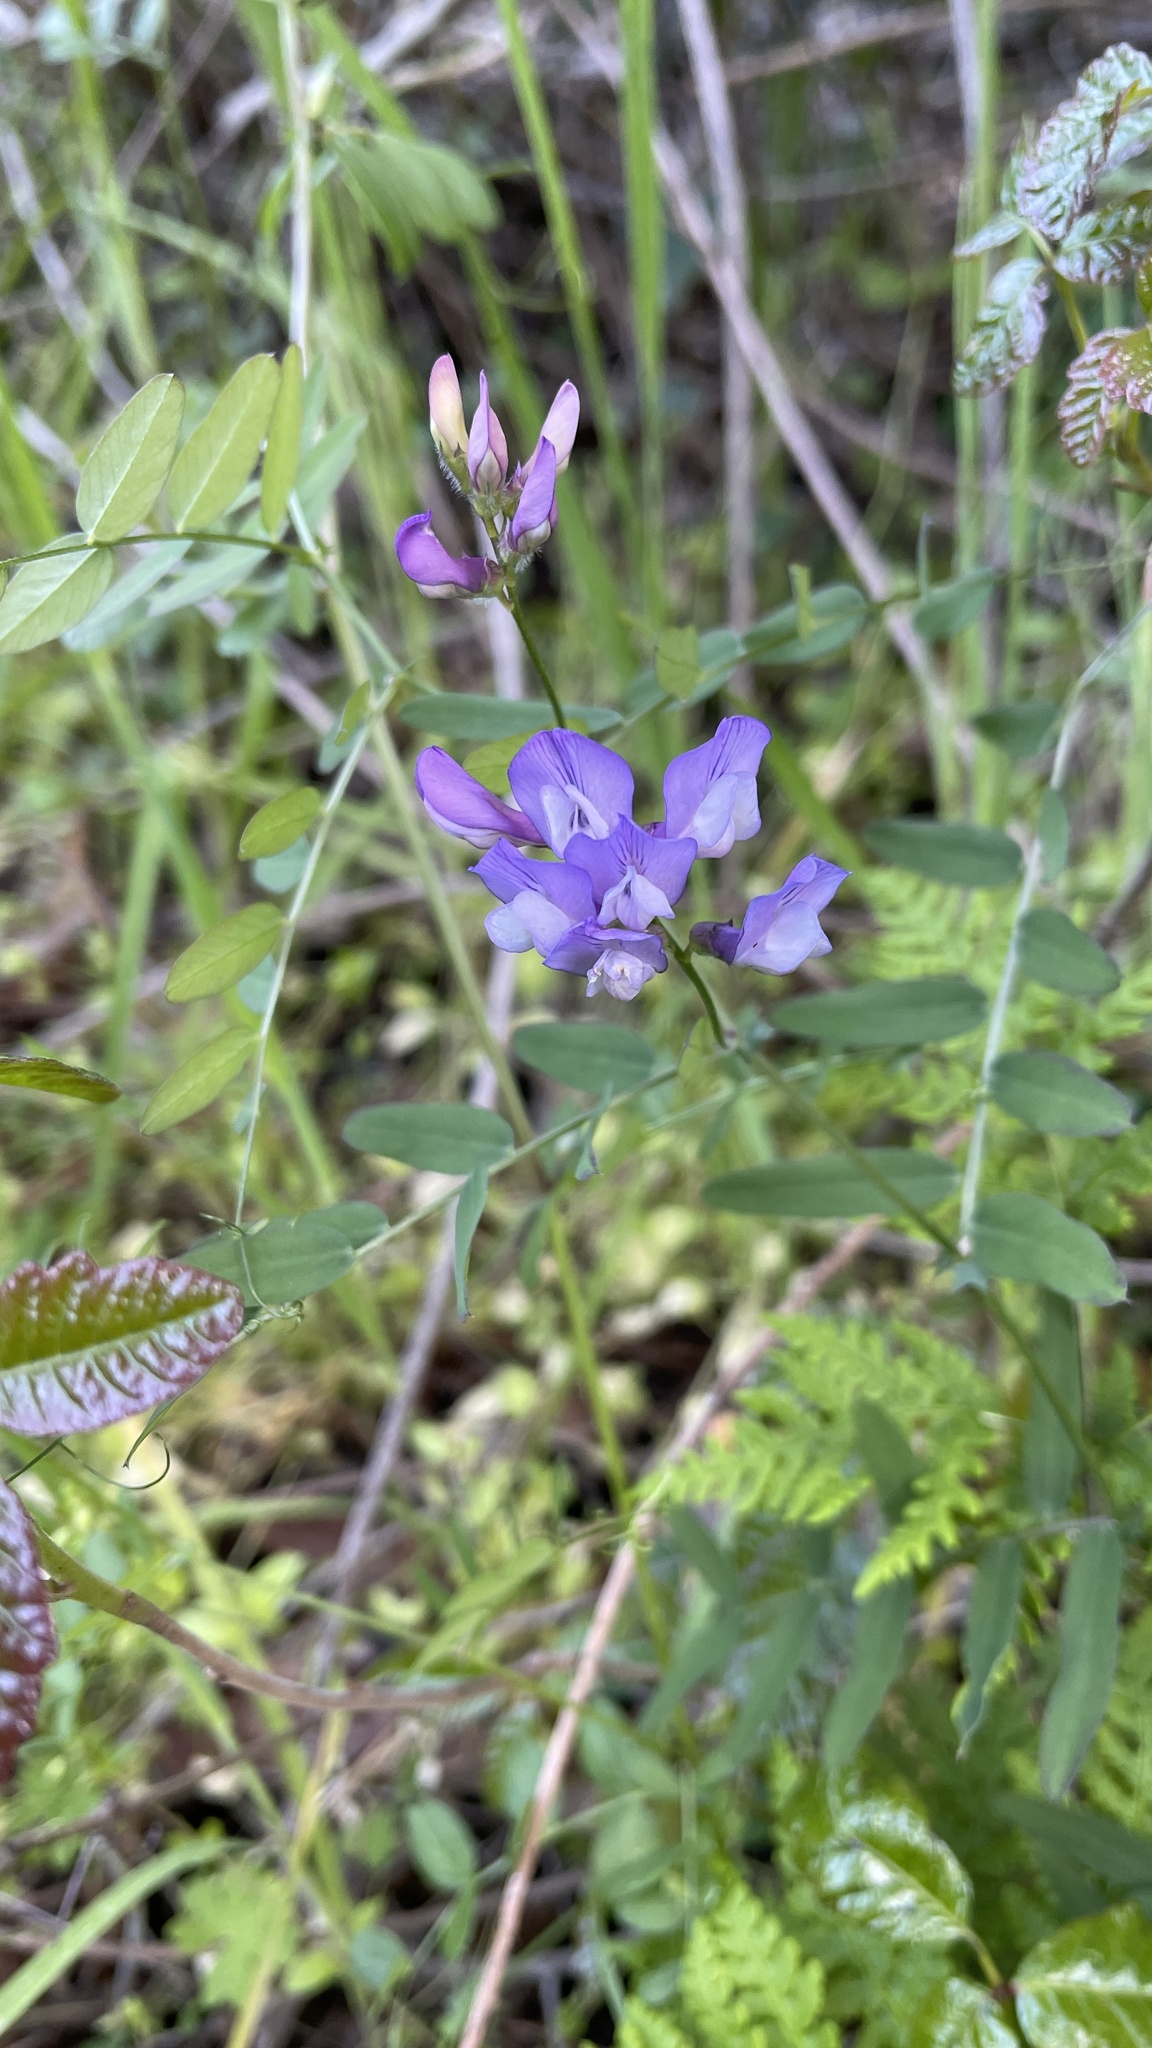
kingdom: Plantae
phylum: Tracheophyta
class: Magnoliopsida
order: Fabales
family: Fabaceae
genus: Vicia
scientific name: Vicia americana
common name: American vetch
